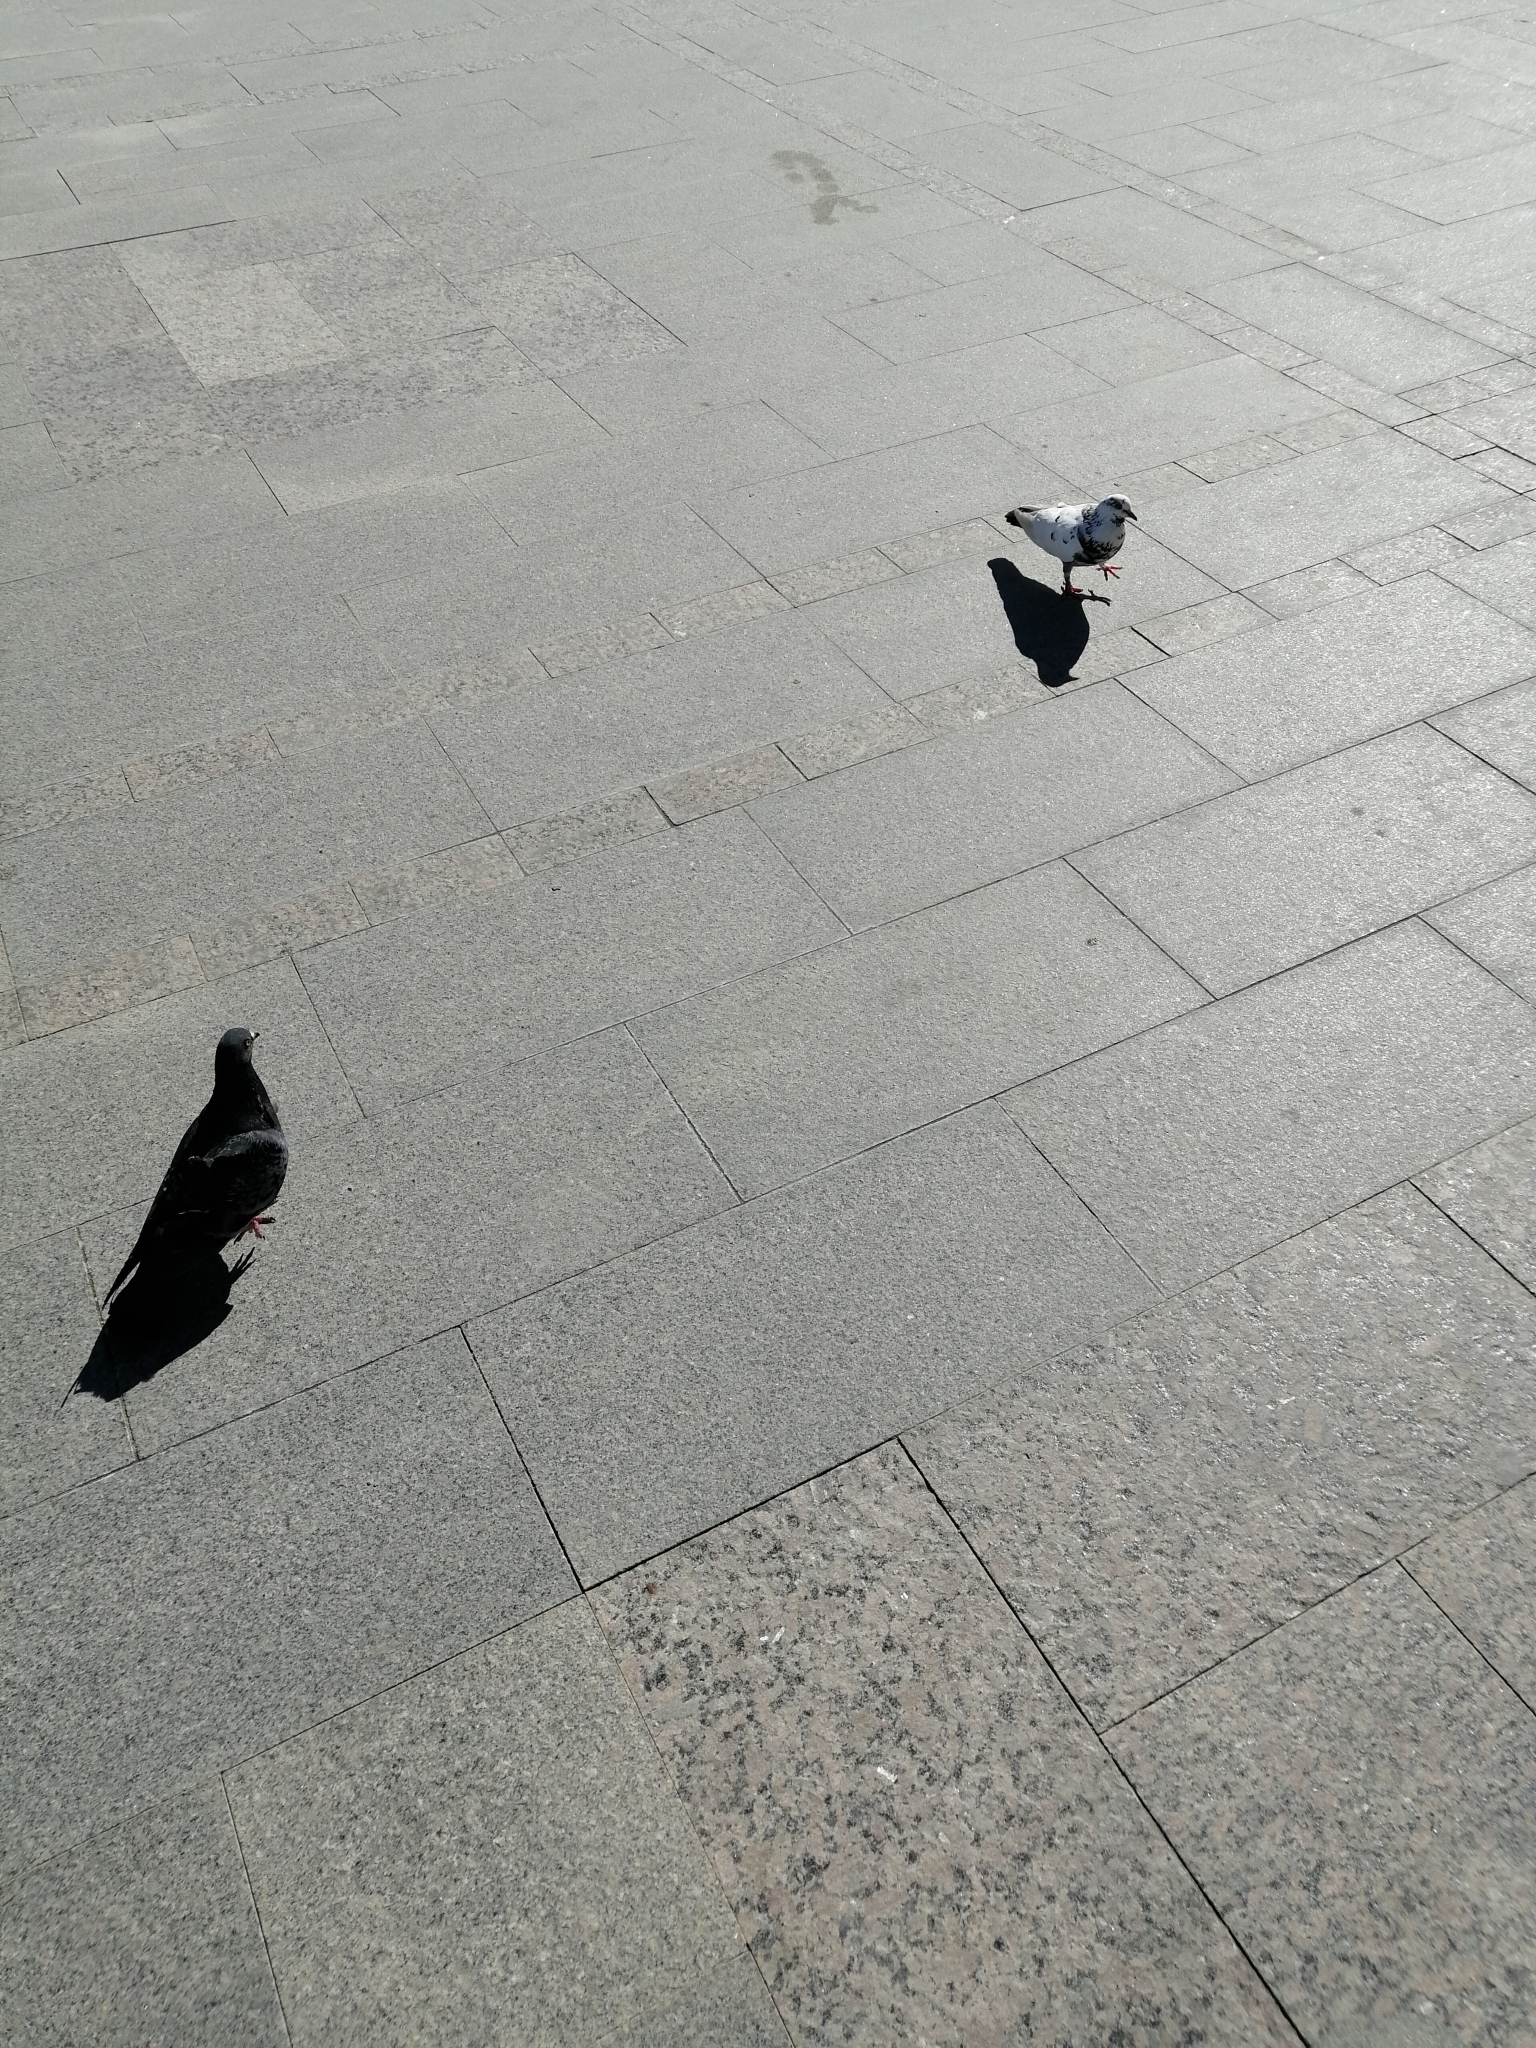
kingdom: Animalia
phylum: Chordata
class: Aves
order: Columbiformes
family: Columbidae
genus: Columba
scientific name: Columba livia
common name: Rock pigeon
